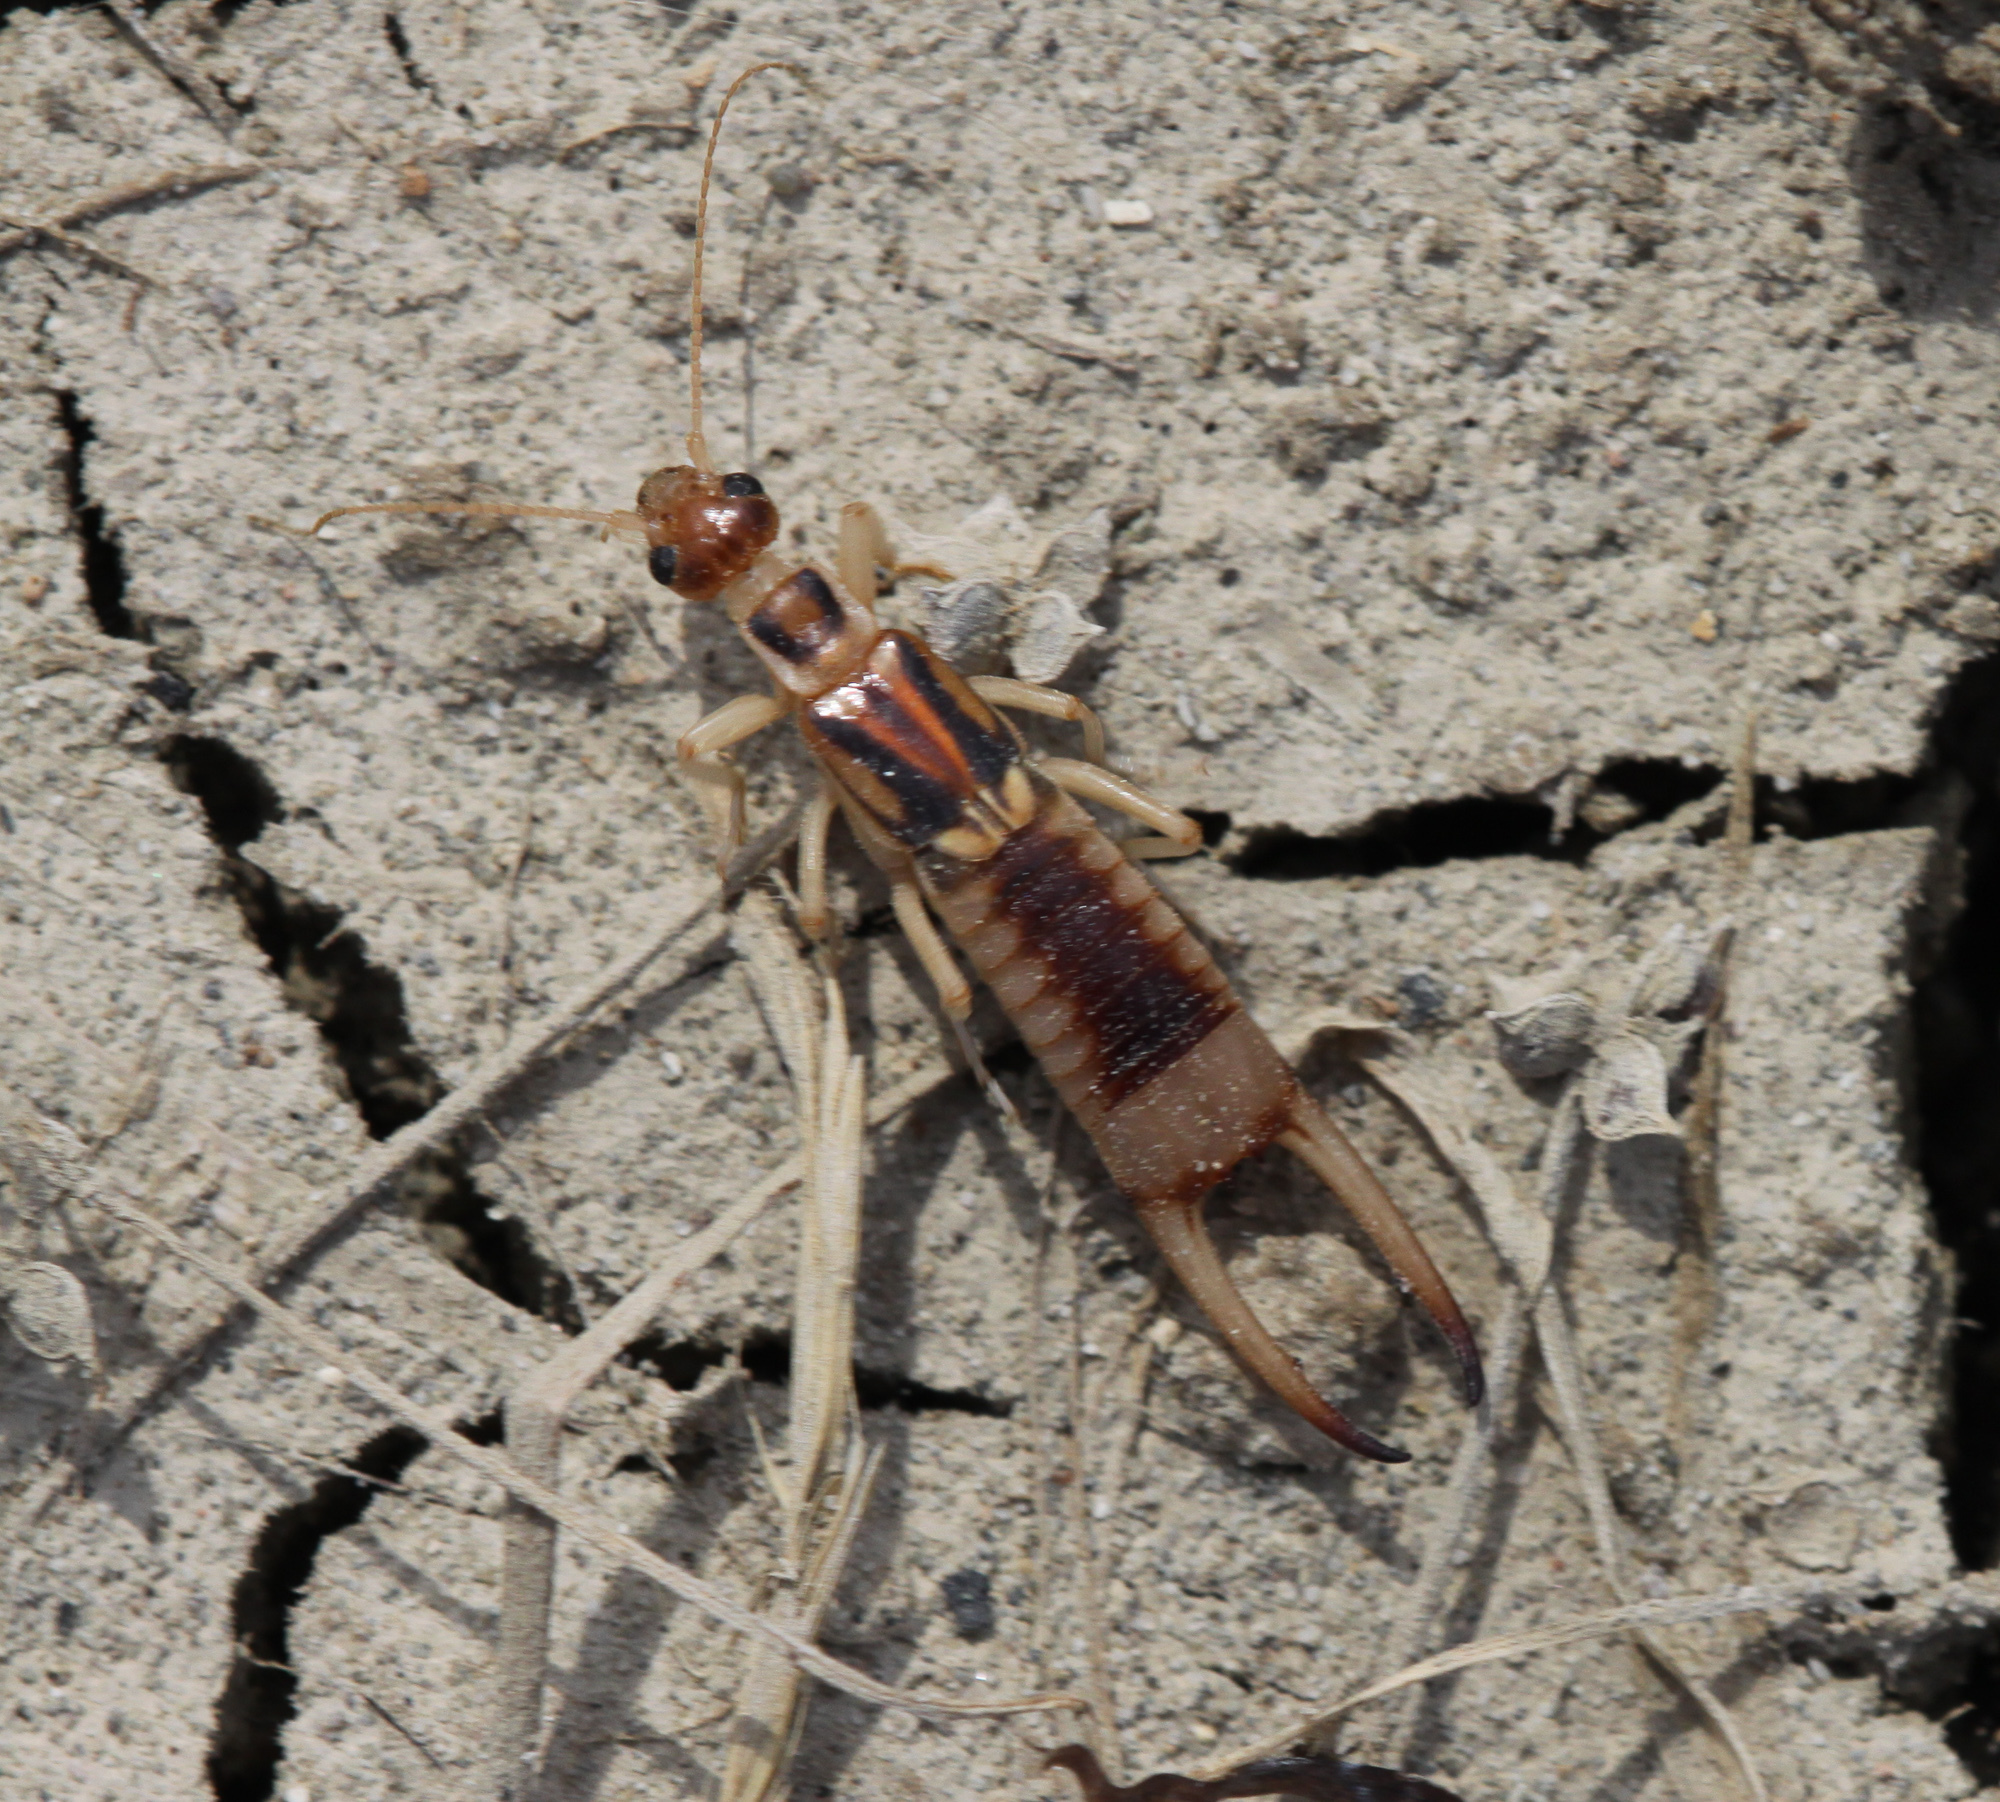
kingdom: Animalia
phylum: Arthropoda
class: Insecta
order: Dermaptera
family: Labiduridae
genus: Labidura
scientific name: Labidura riparia
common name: Striped earwig
